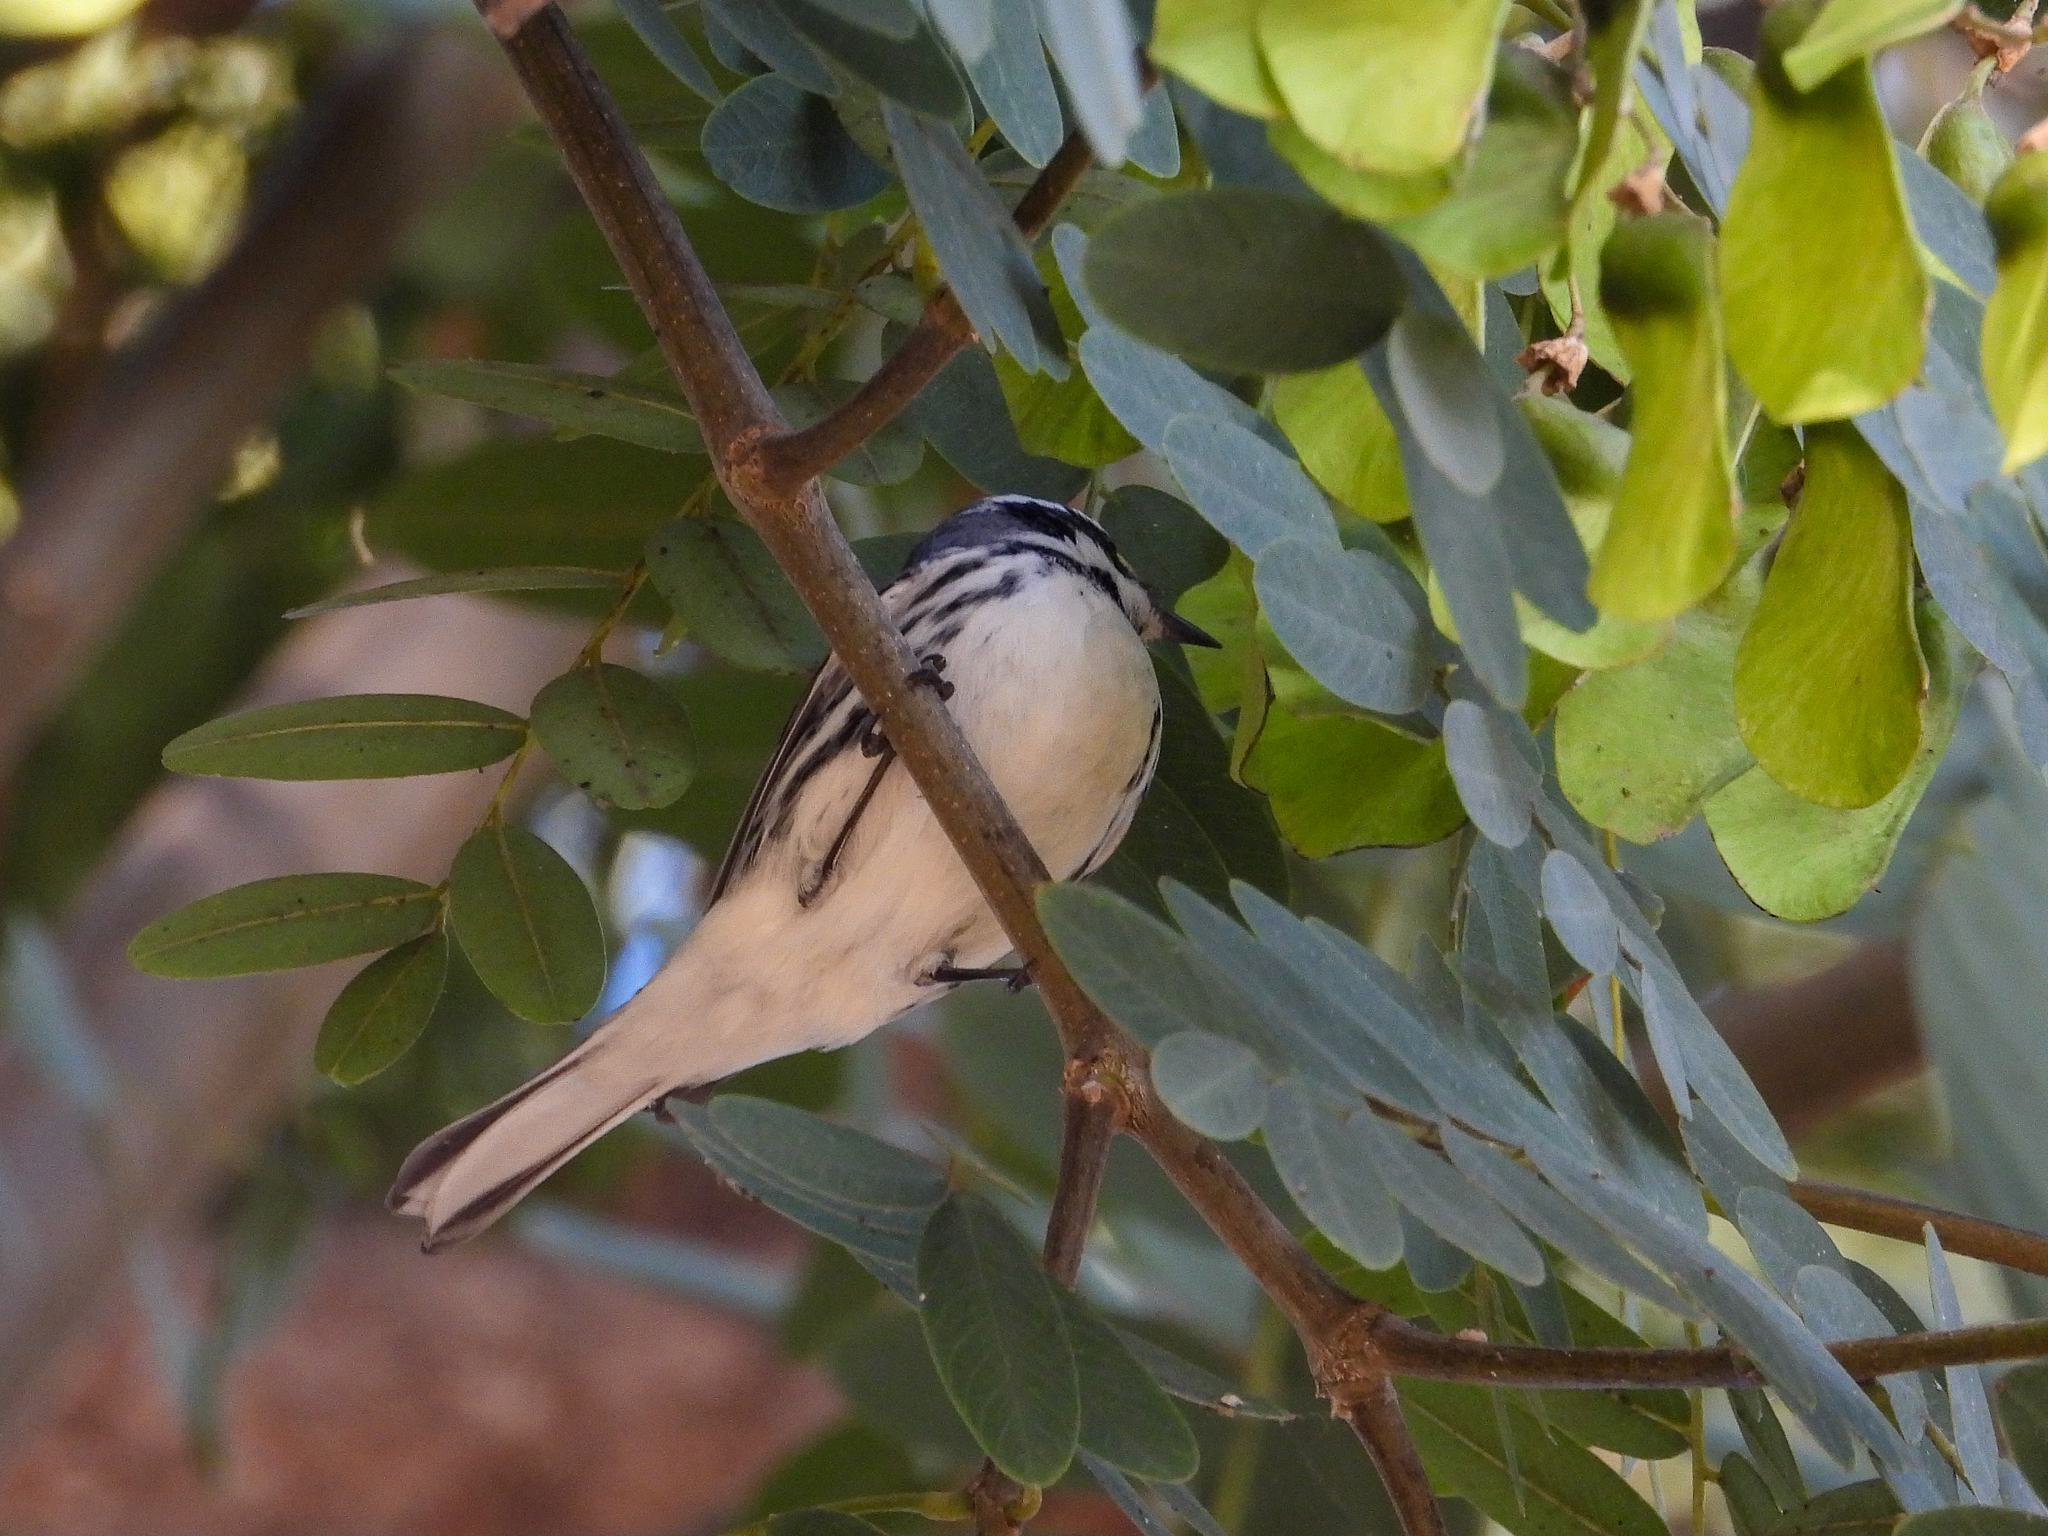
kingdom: Animalia
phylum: Chordata
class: Aves
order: Passeriformes
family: Parulidae
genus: Setophaga
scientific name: Setophaga nigrescens
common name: Black-throated gray warbler
